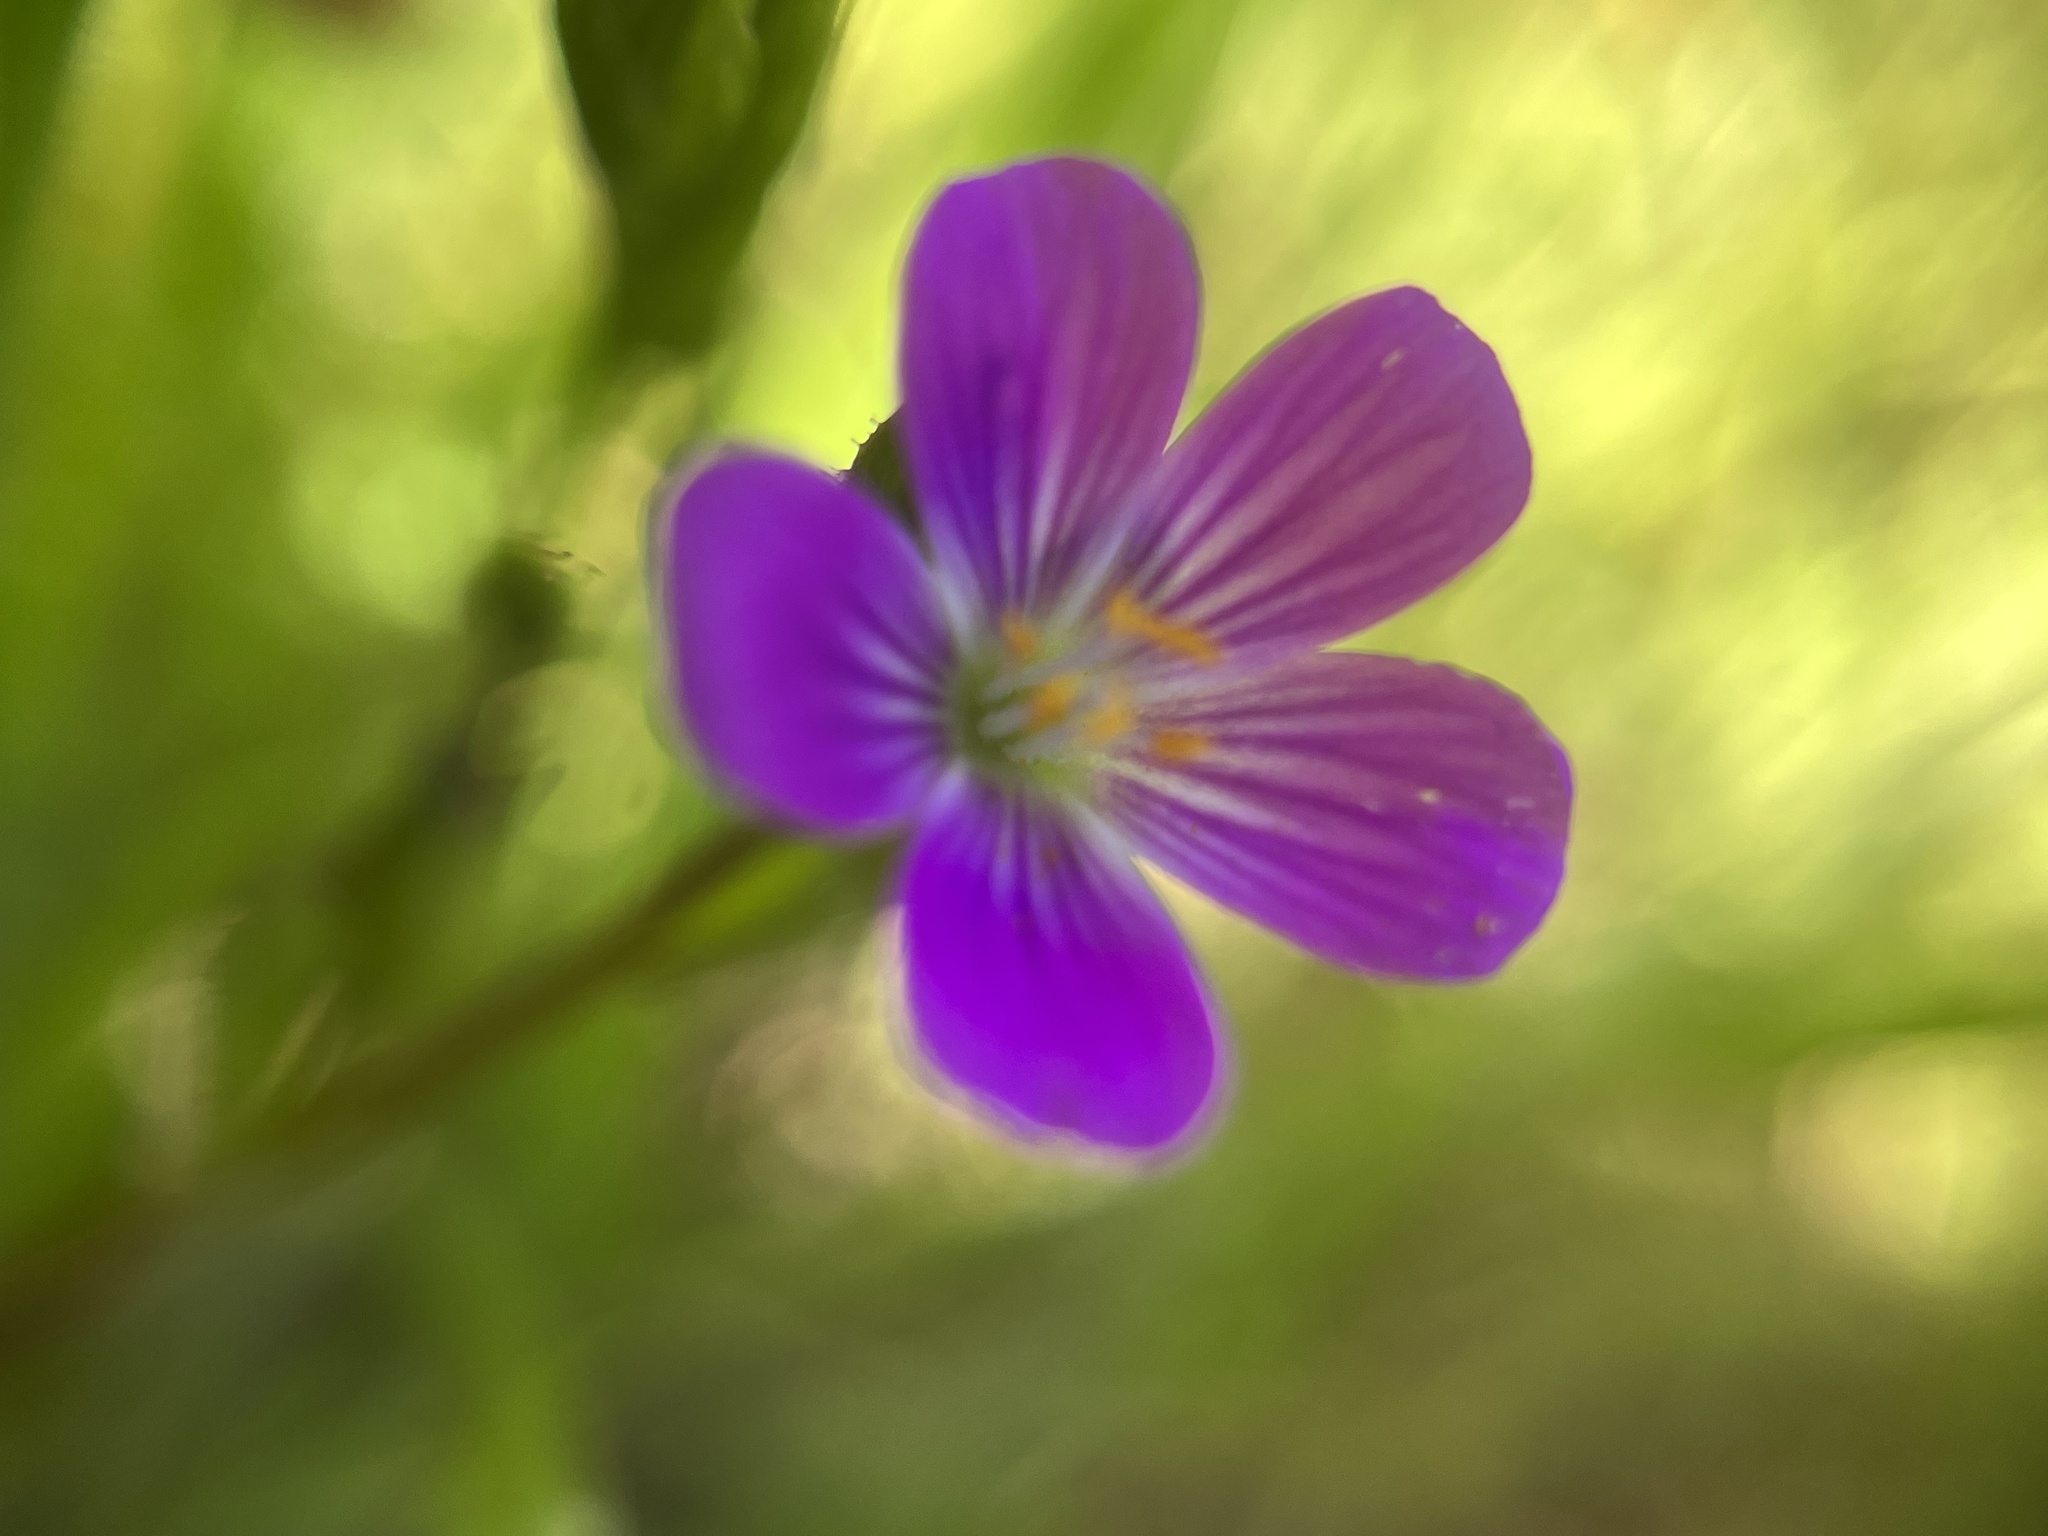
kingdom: Plantae
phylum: Tracheophyta
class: Magnoliopsida
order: Caryophyllales
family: Montiaceae
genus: Calandrinia
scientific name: Calandrinia menziesii
